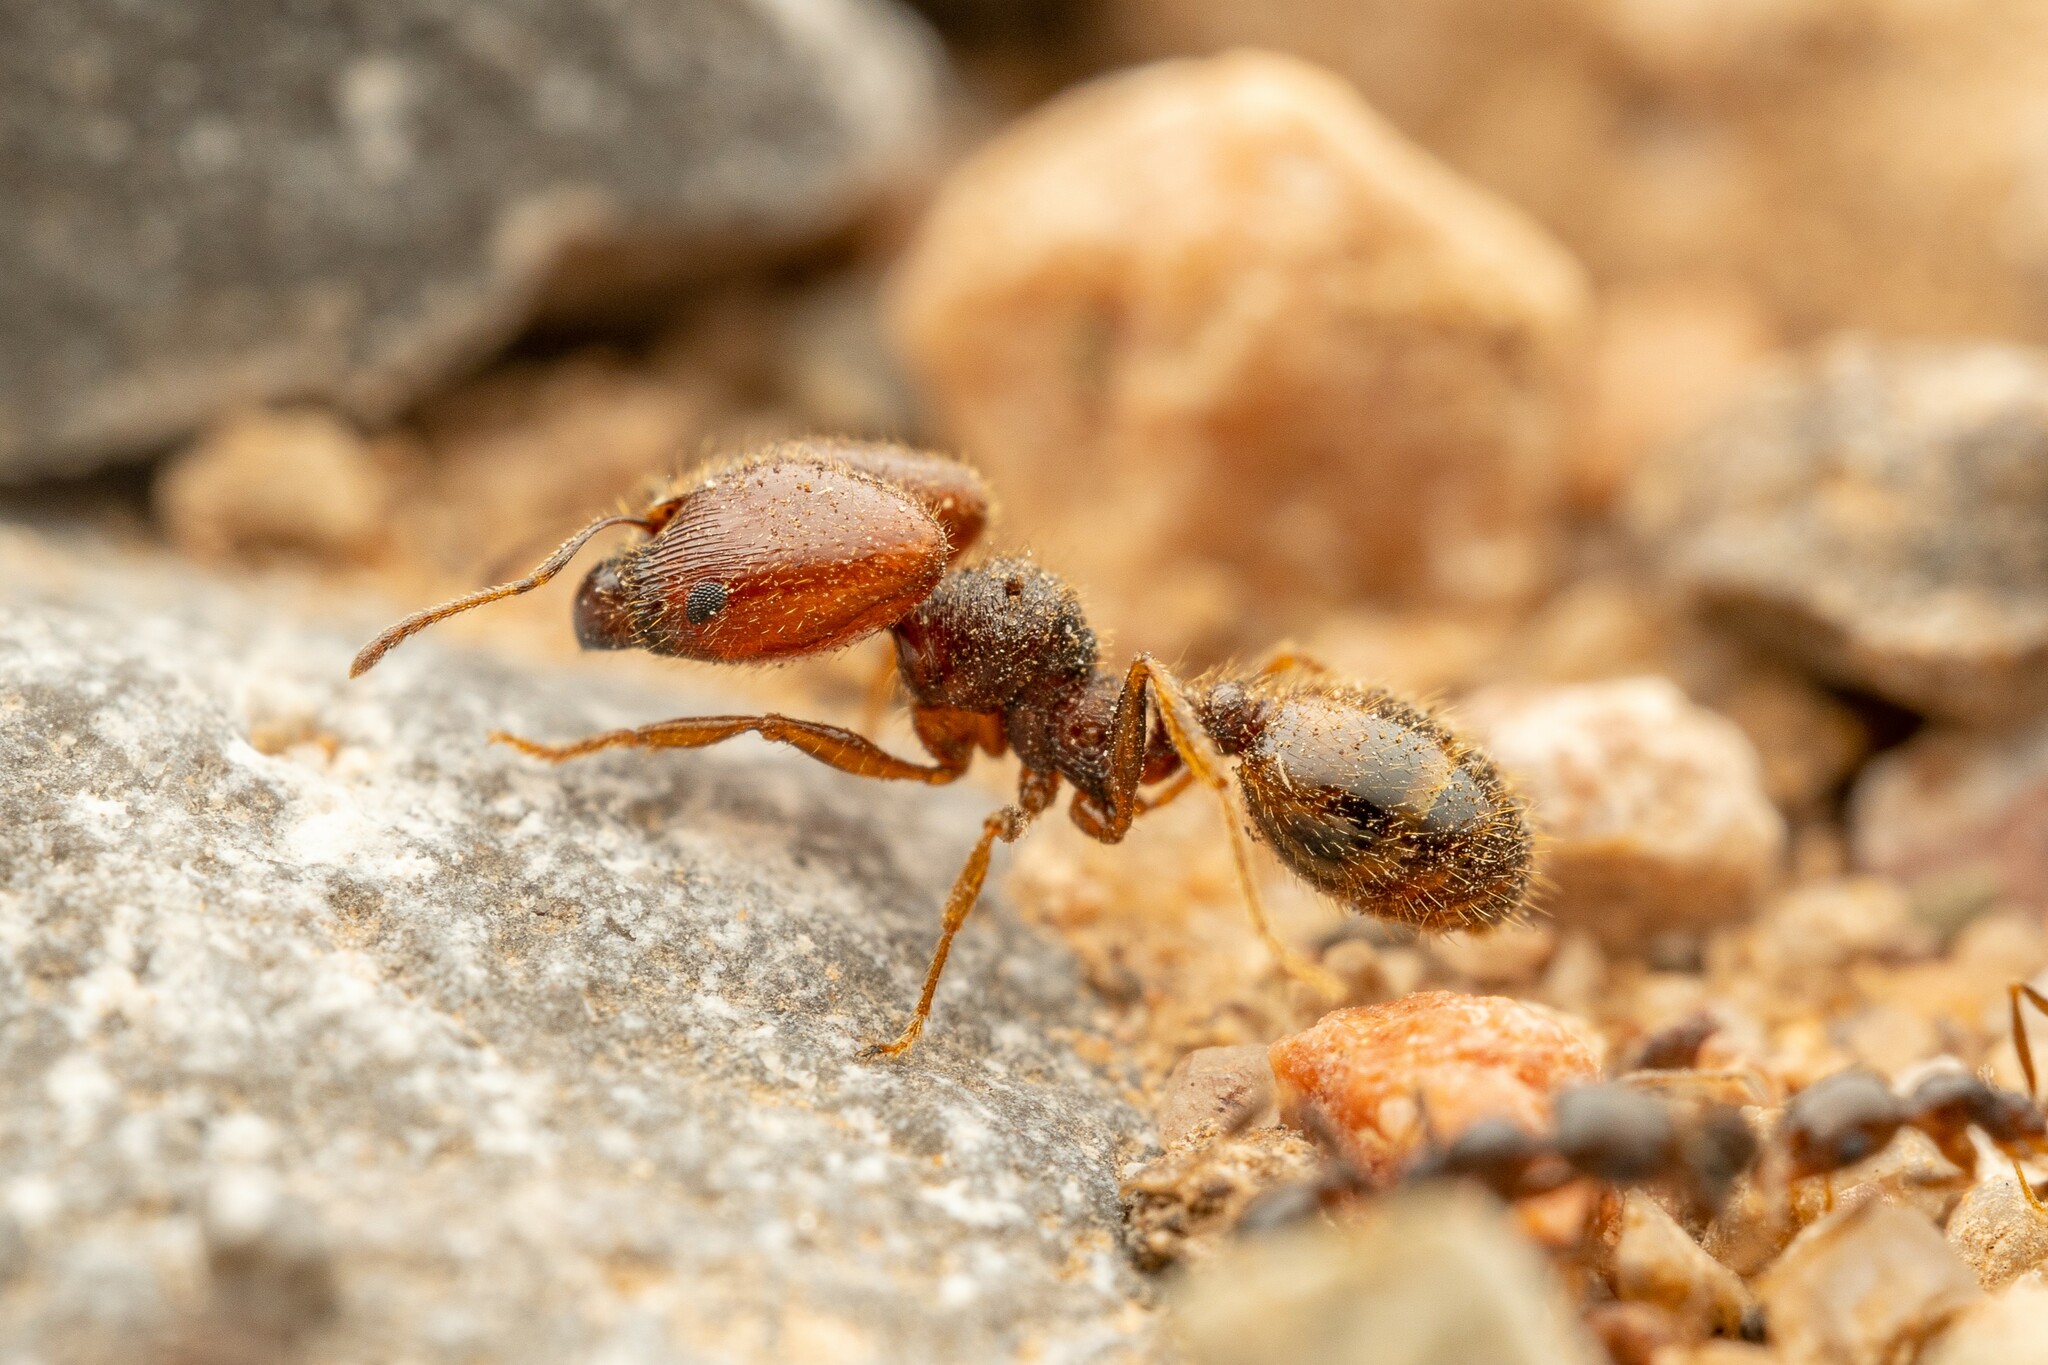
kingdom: Animalia
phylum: Arthropoda
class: Insecta
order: Hymenoptera
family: Formicidae
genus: Pheidole
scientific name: Pheidole xerophila
